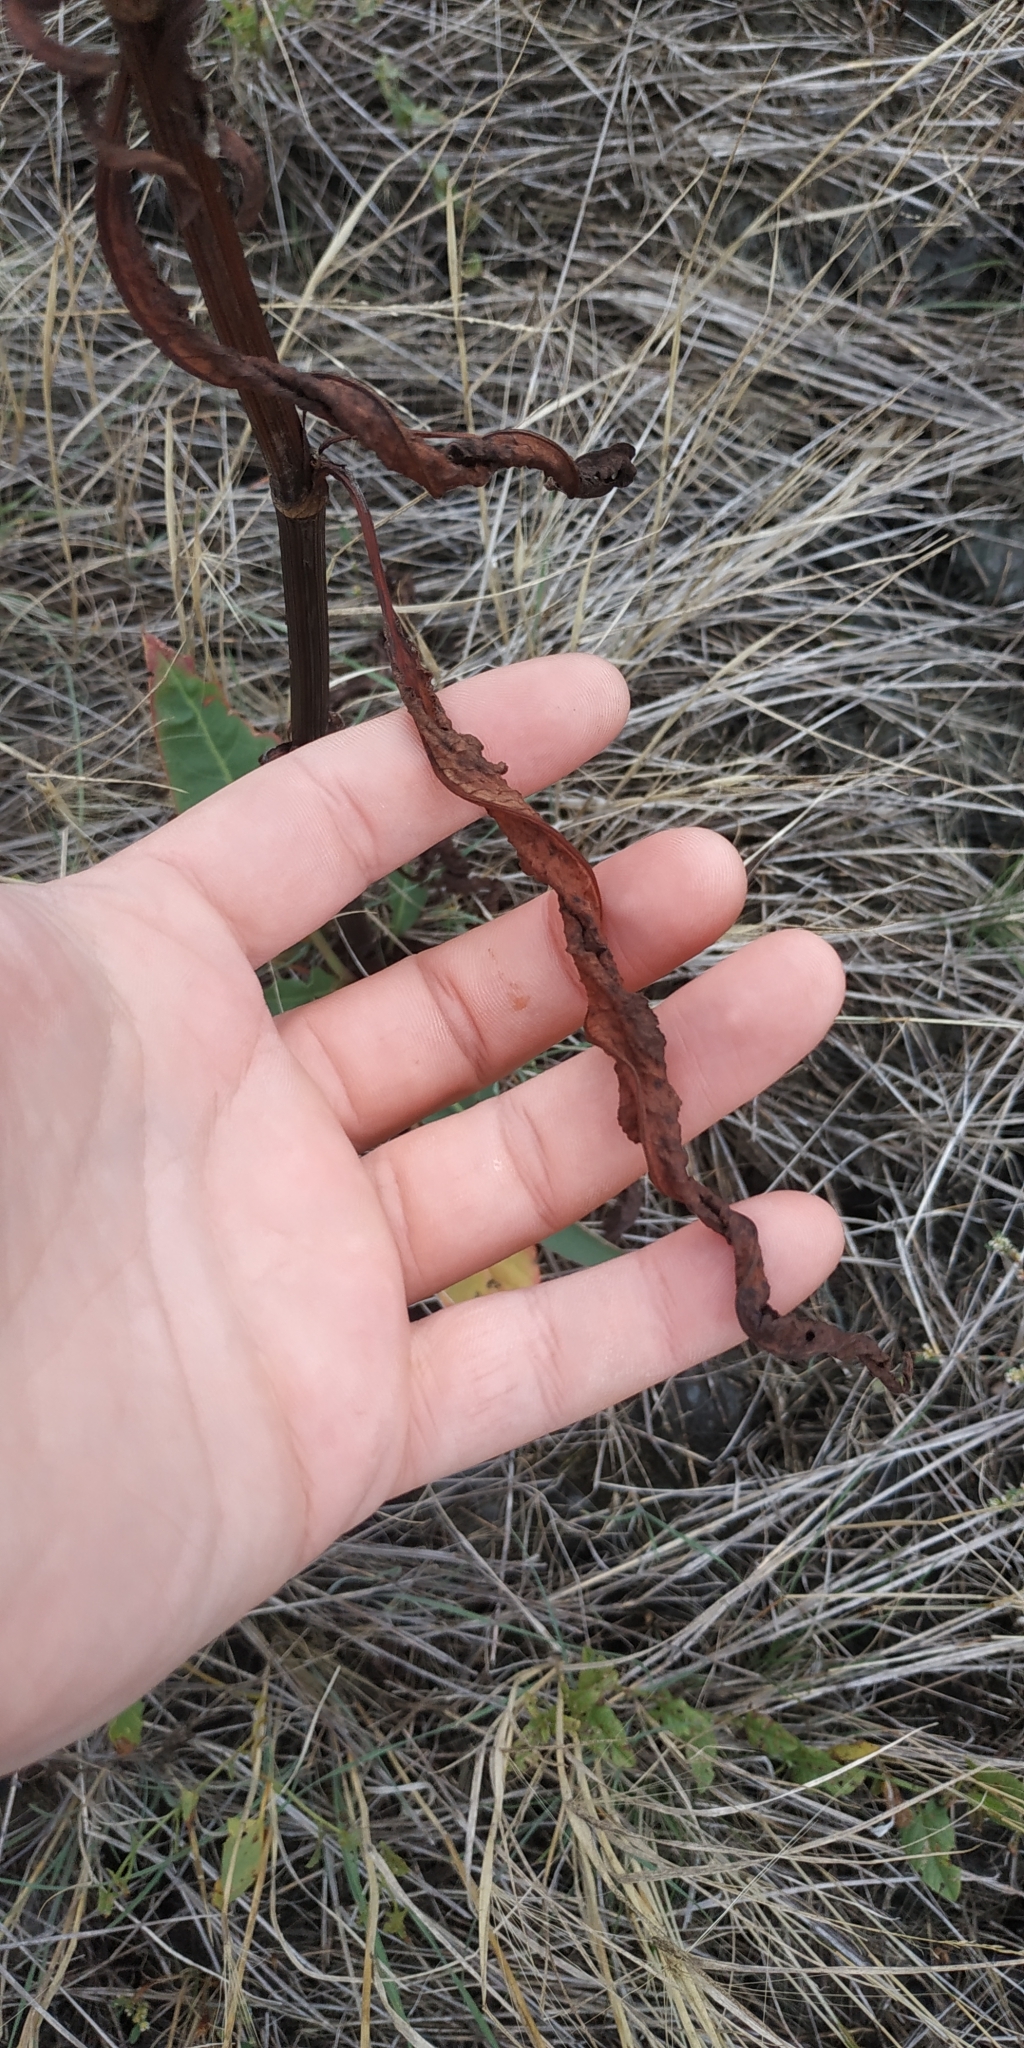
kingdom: Plantae
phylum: Tracheophyta
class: Magnoliopsida
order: Caryophyllales
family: Polygonaceae
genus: Rumex
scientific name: Rumex pseudonatronatus
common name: Field dock
